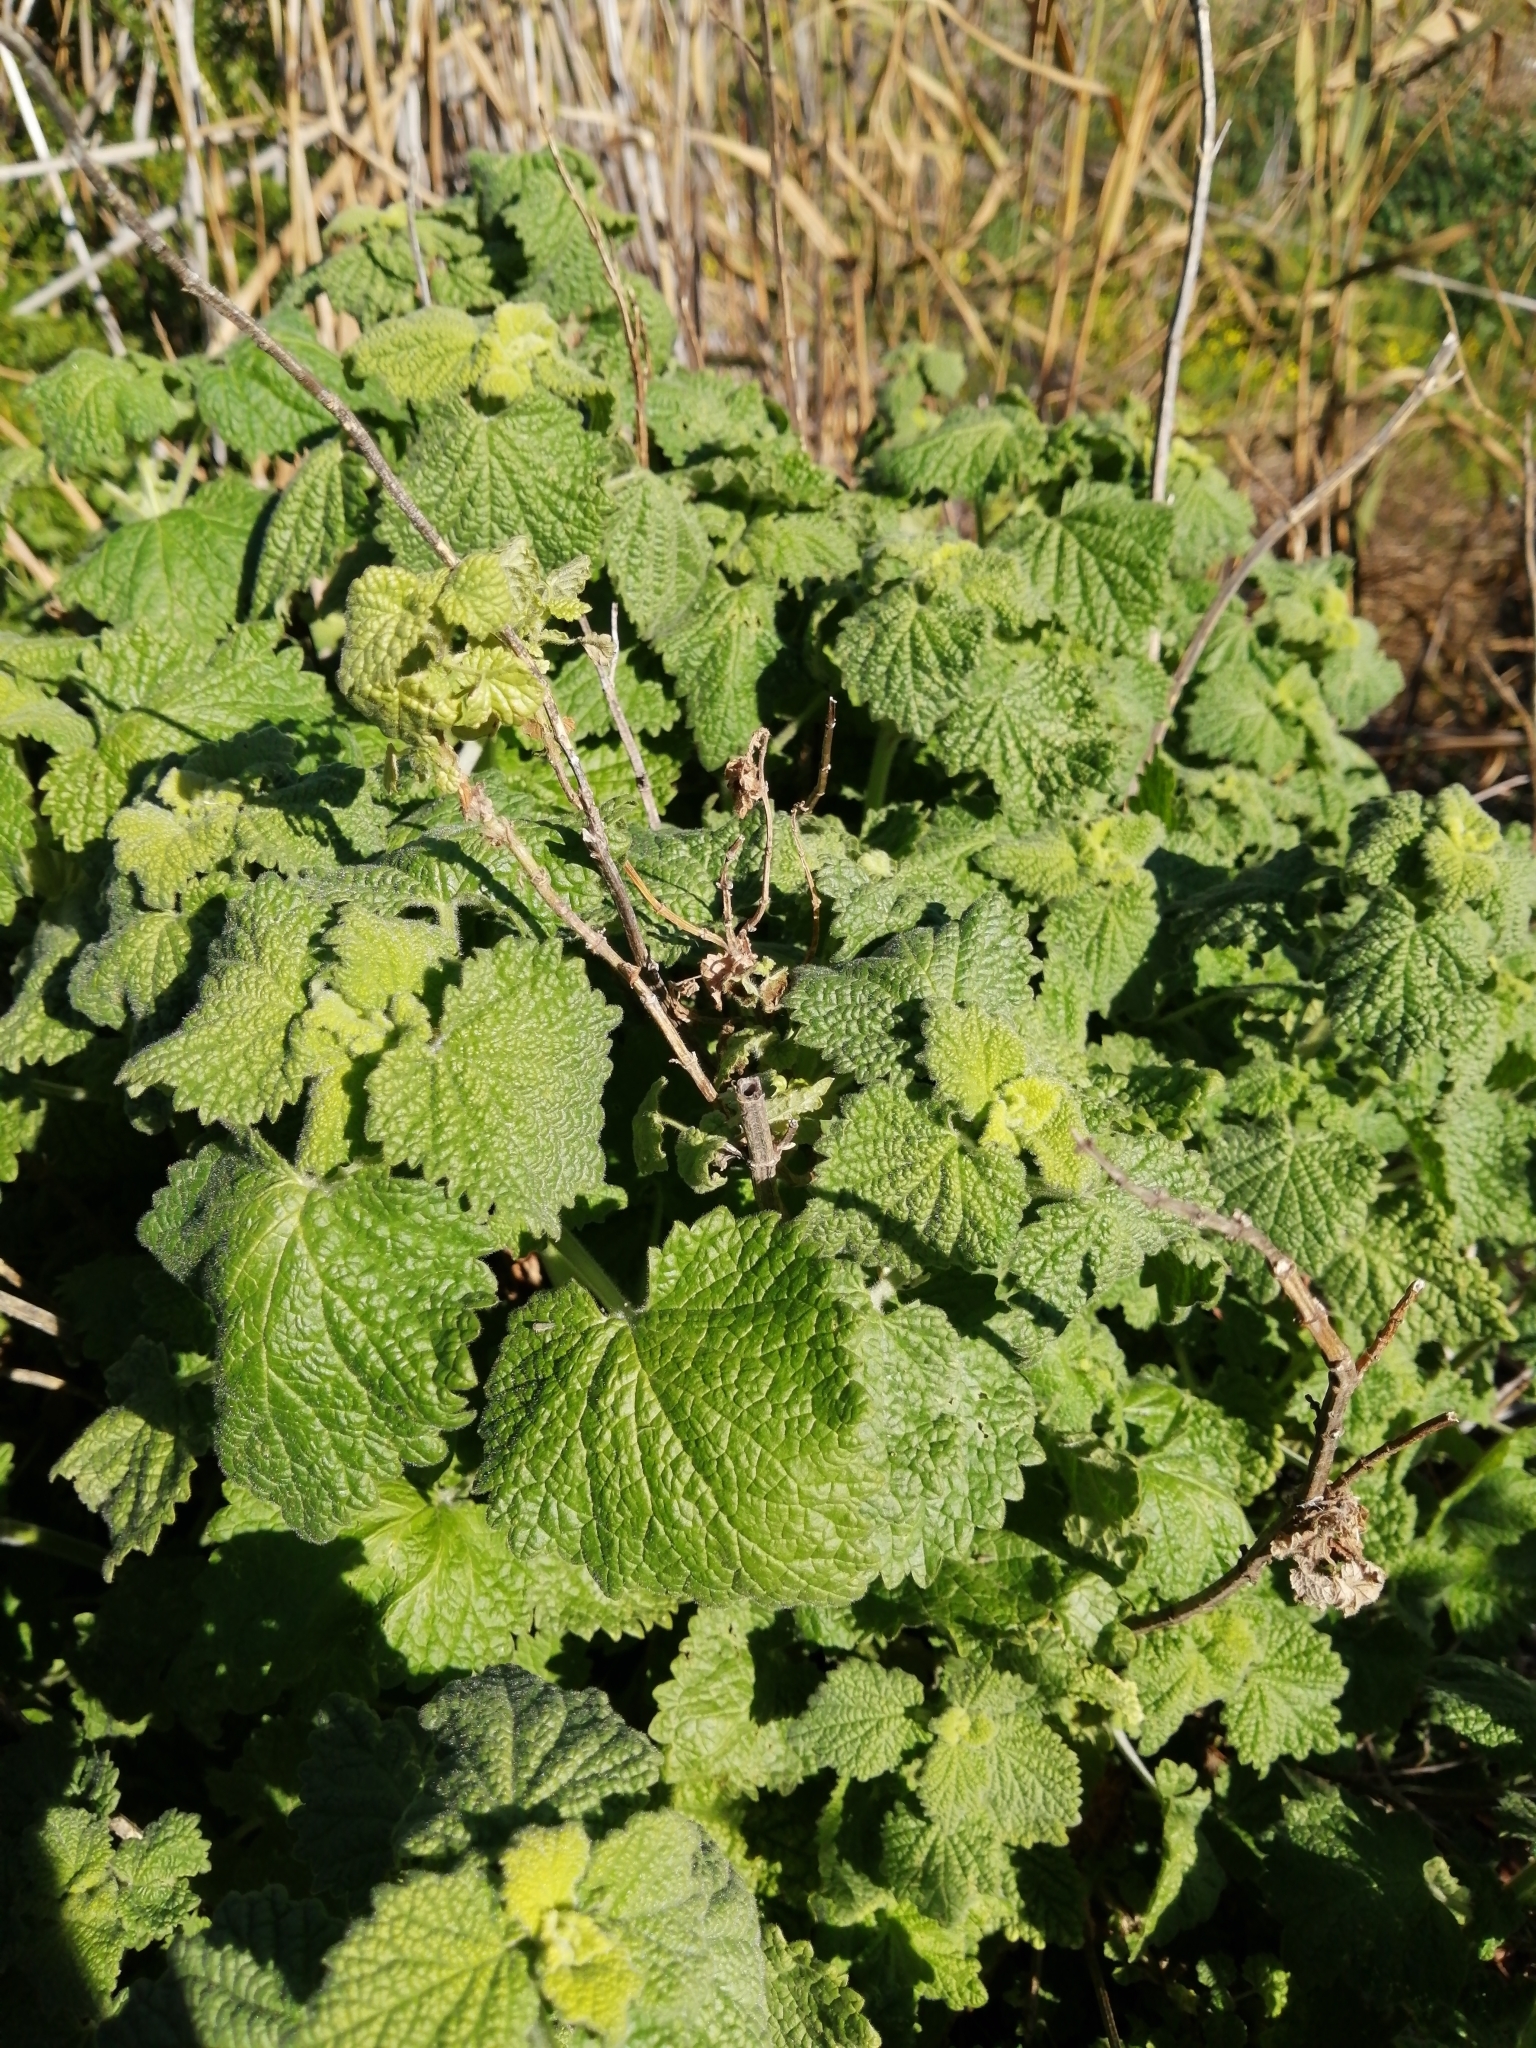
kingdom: Plantae
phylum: Tracheophyta
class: Magnoliopsida
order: Lamiales
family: Lamiaceae
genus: Pseudodictamnus
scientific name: Pseudodictamnus africanus
